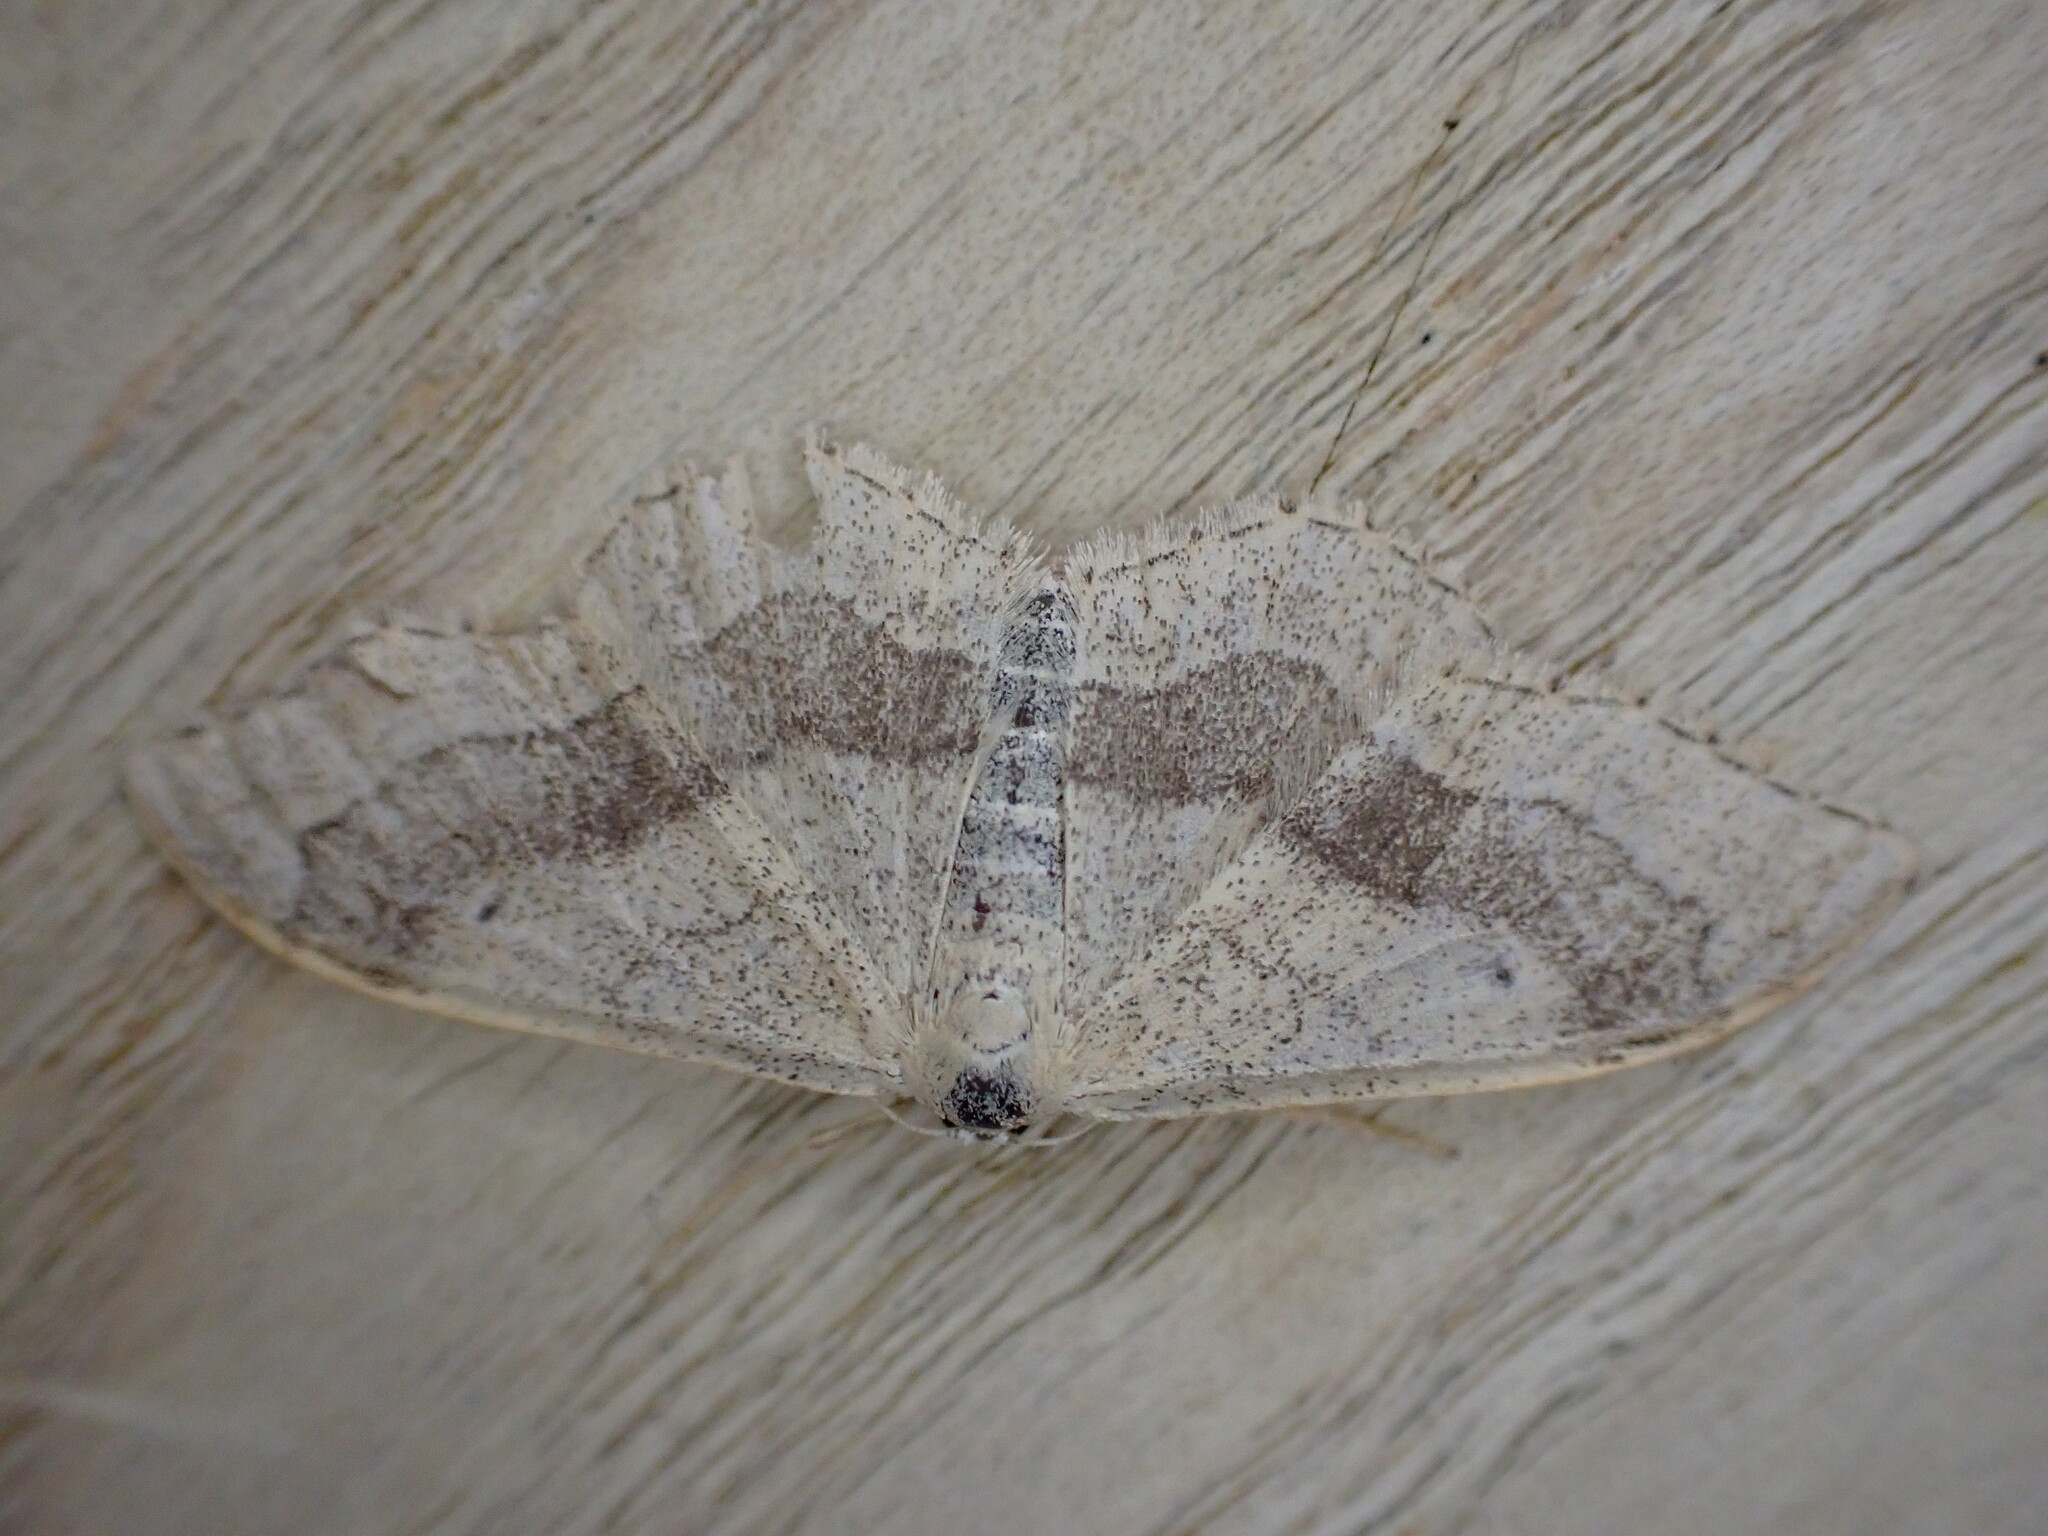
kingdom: Animalia
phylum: Arthropoda
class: Insecta
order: Lepidoptera
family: Geometridae
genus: Idaea
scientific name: Idaea aversata
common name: Riband wave
